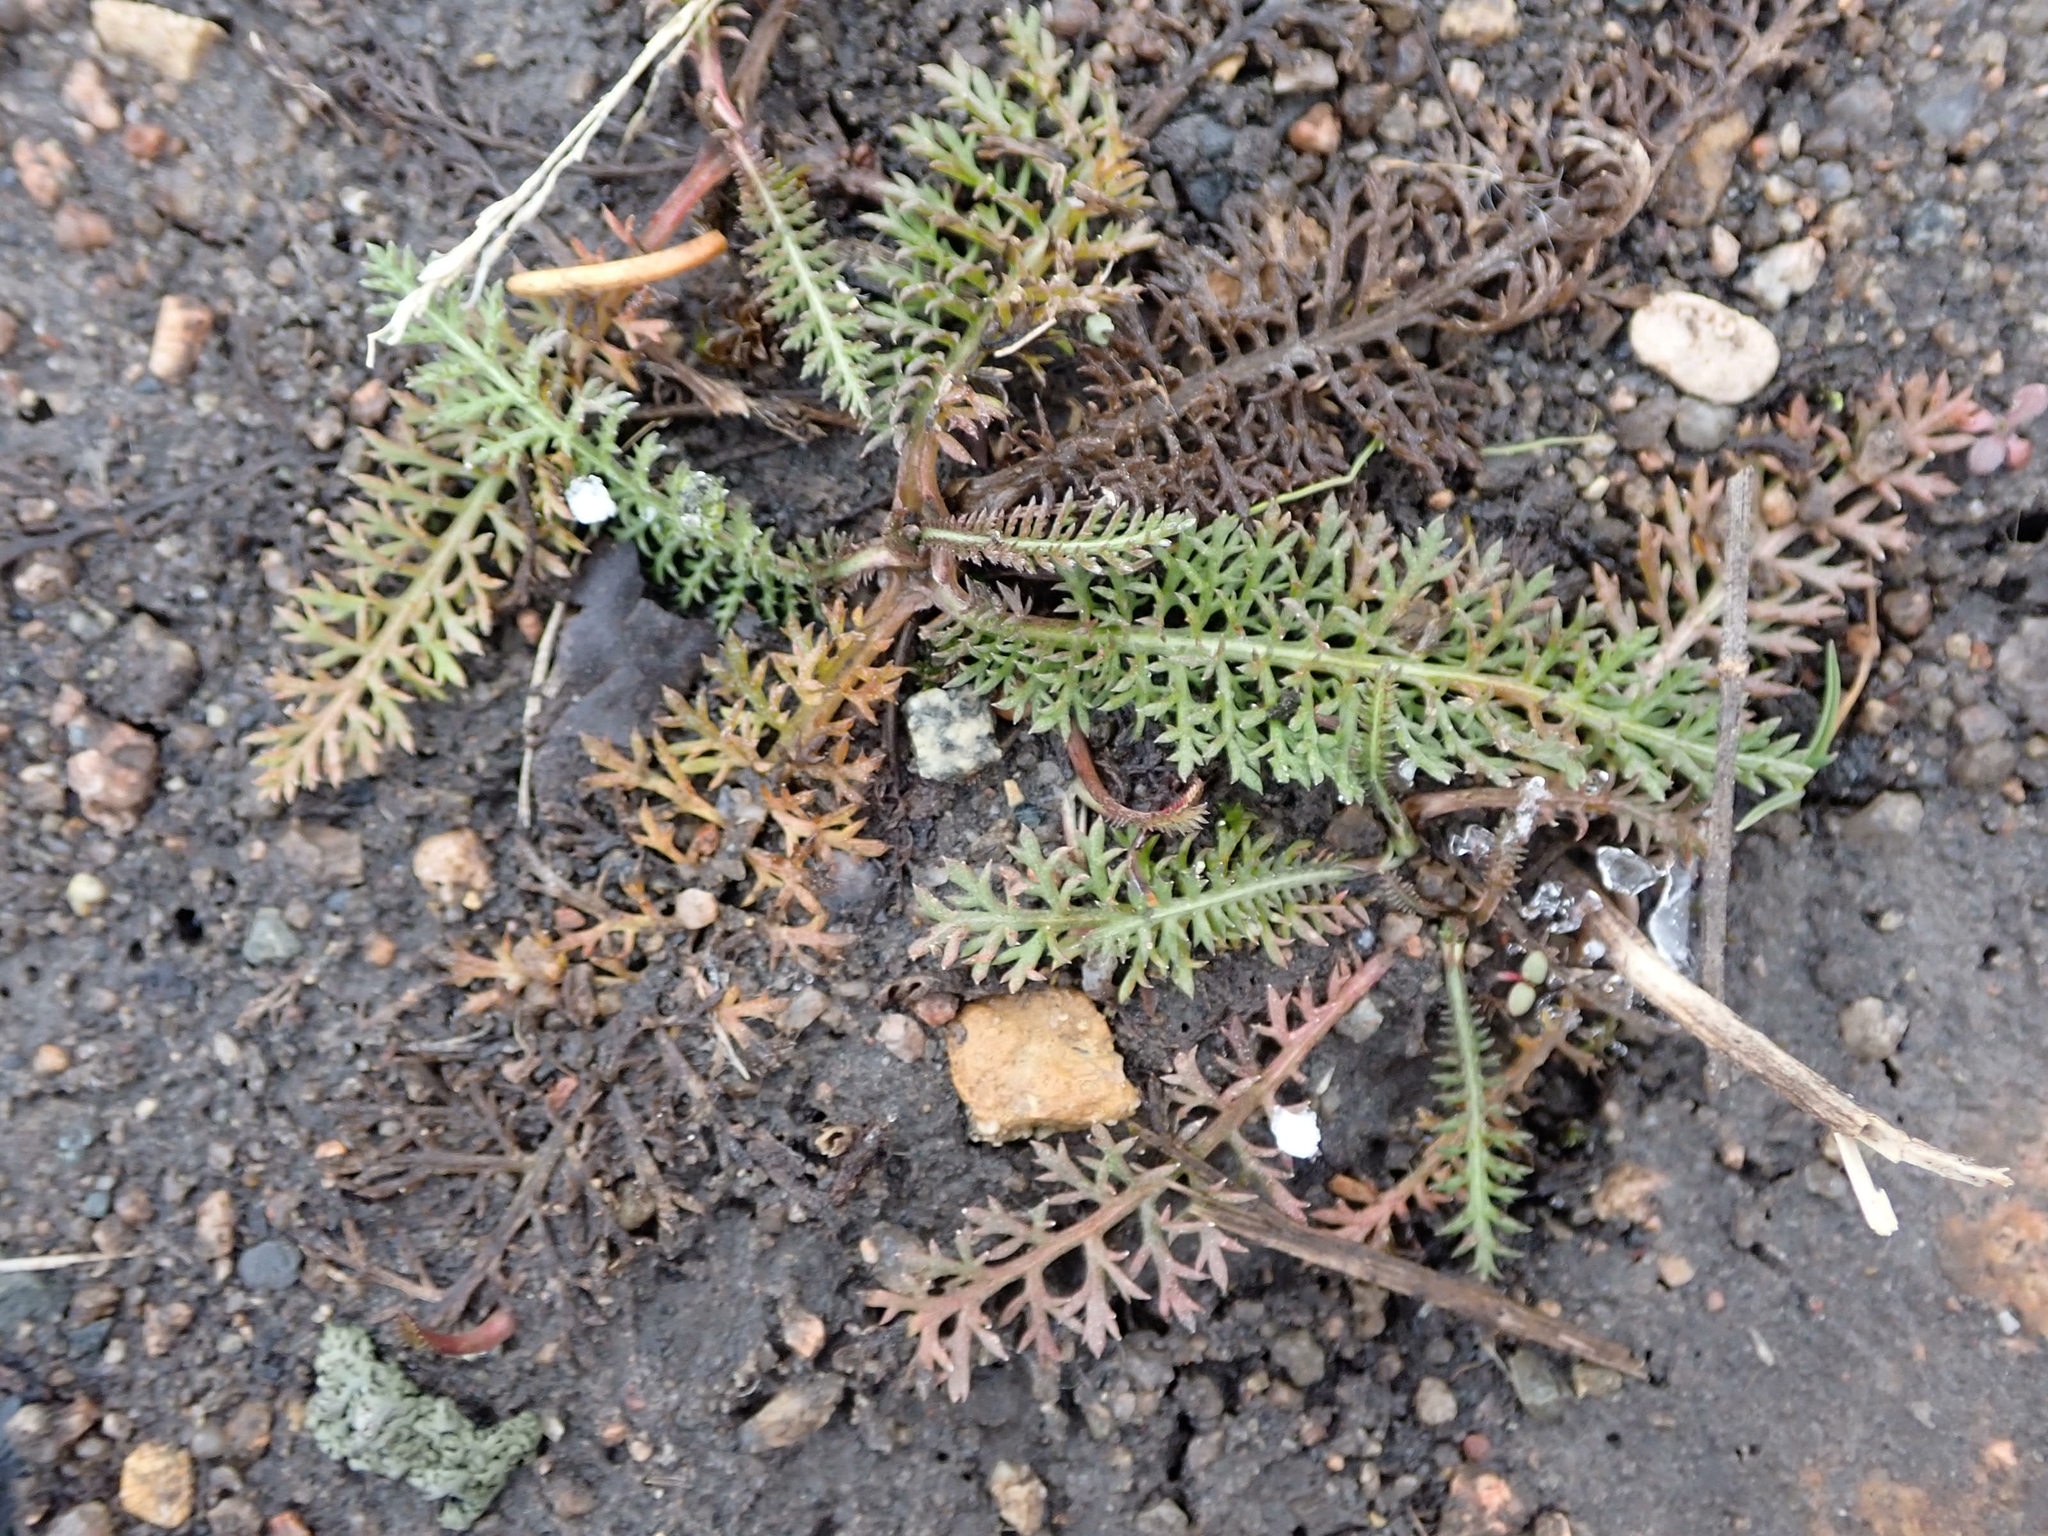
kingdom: Plantae
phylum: Tracheophyta
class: Magnoliopsida
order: Asterales
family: Asteraceae
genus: Achillea
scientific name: Achillea millefolium
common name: Yarrow
